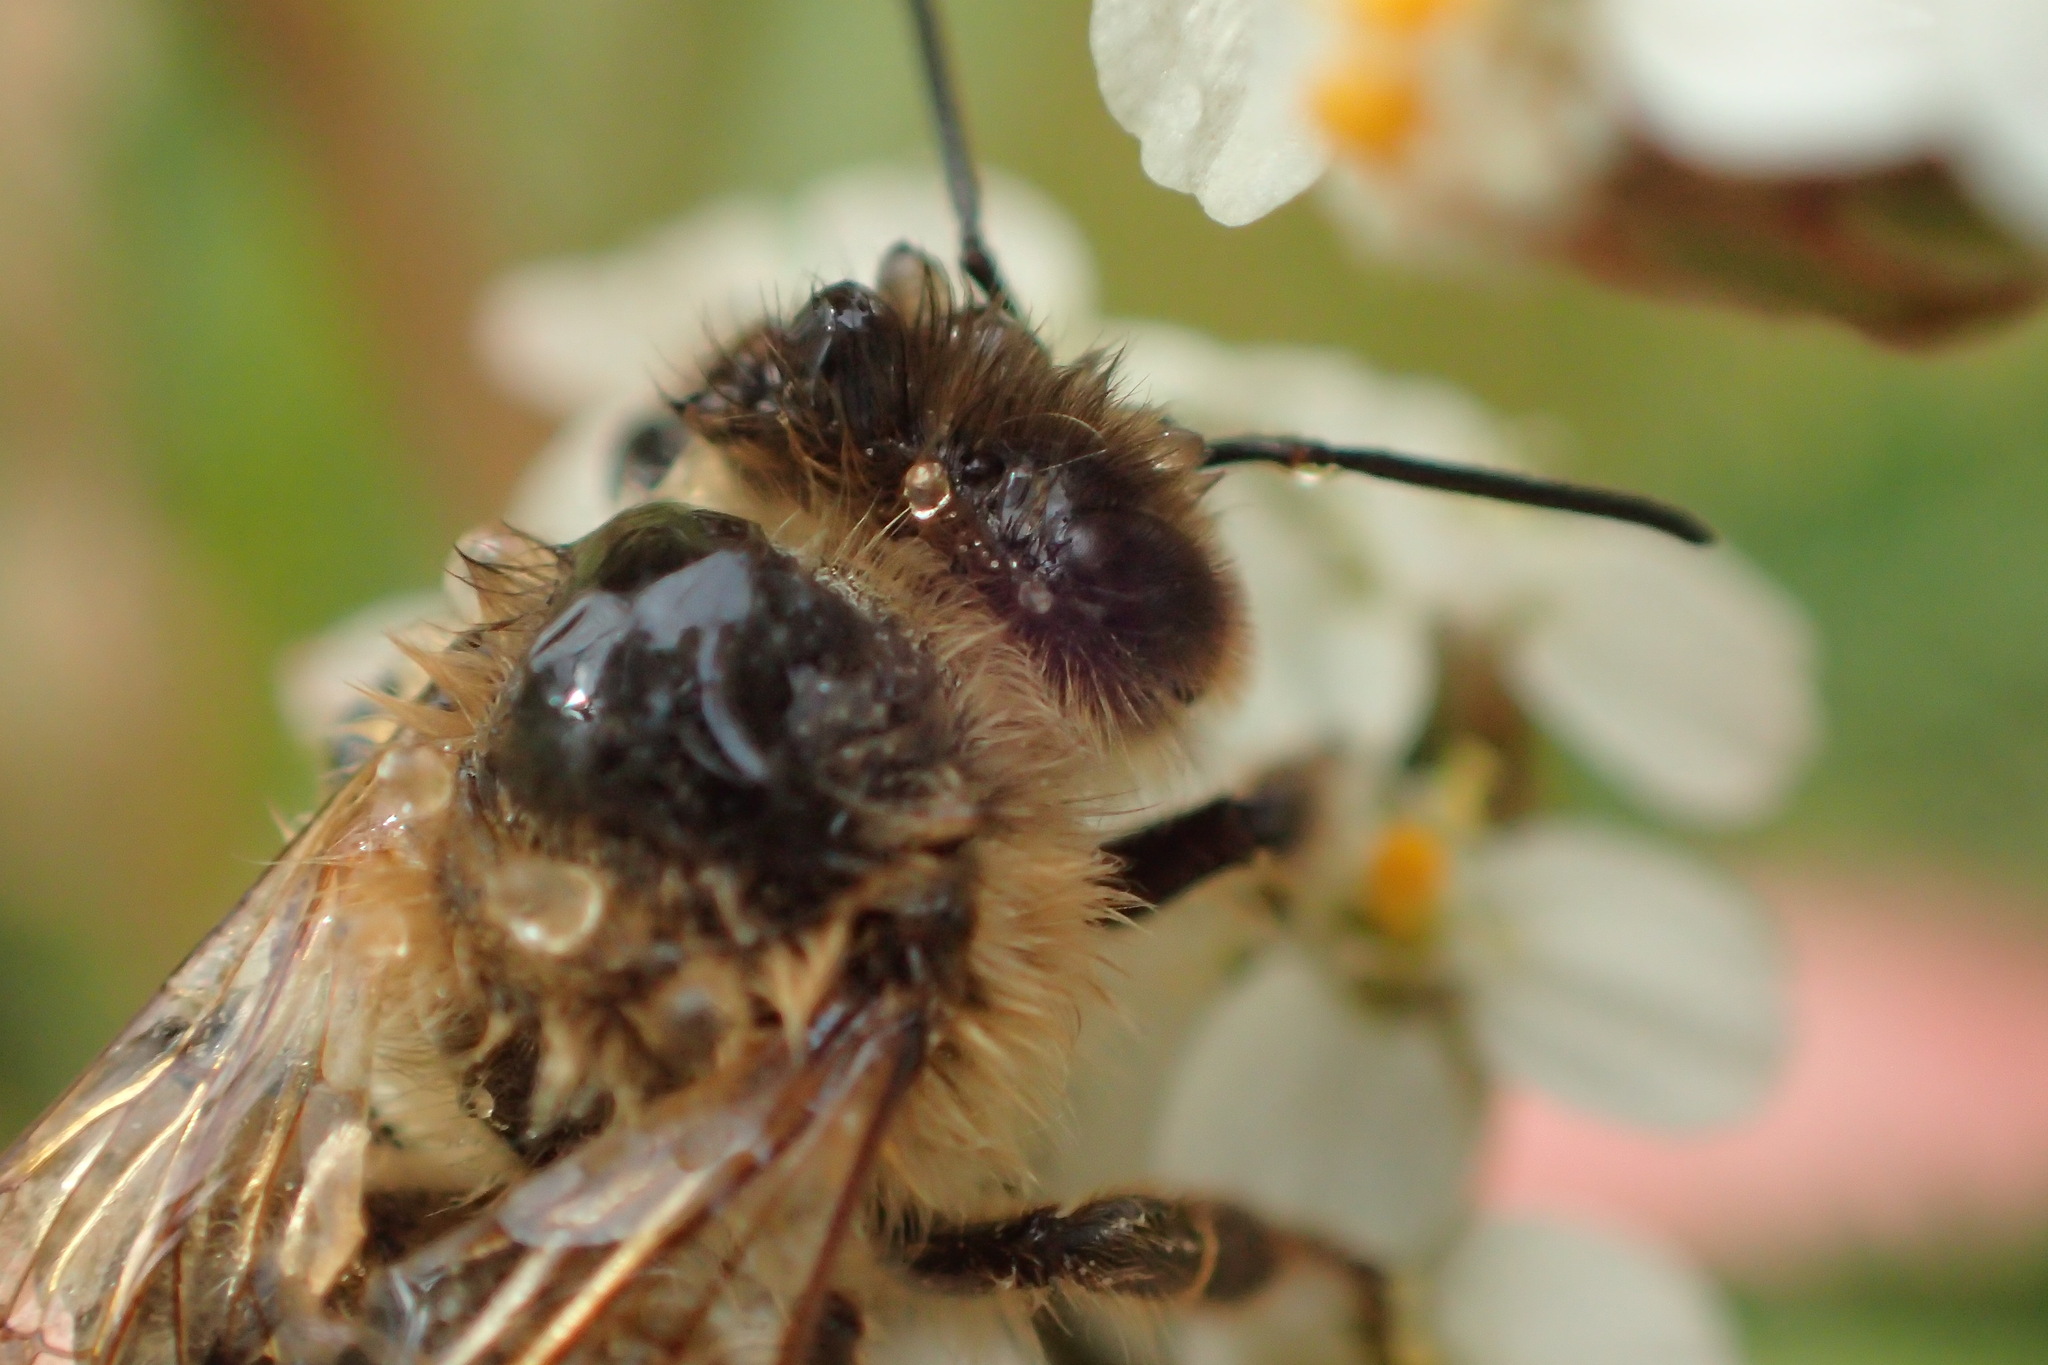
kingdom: Animalia
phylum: Arthropoda
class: Insecta
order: Hymenoptera
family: Apidae
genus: Apis
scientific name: Apis mellifera
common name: Honey bee
